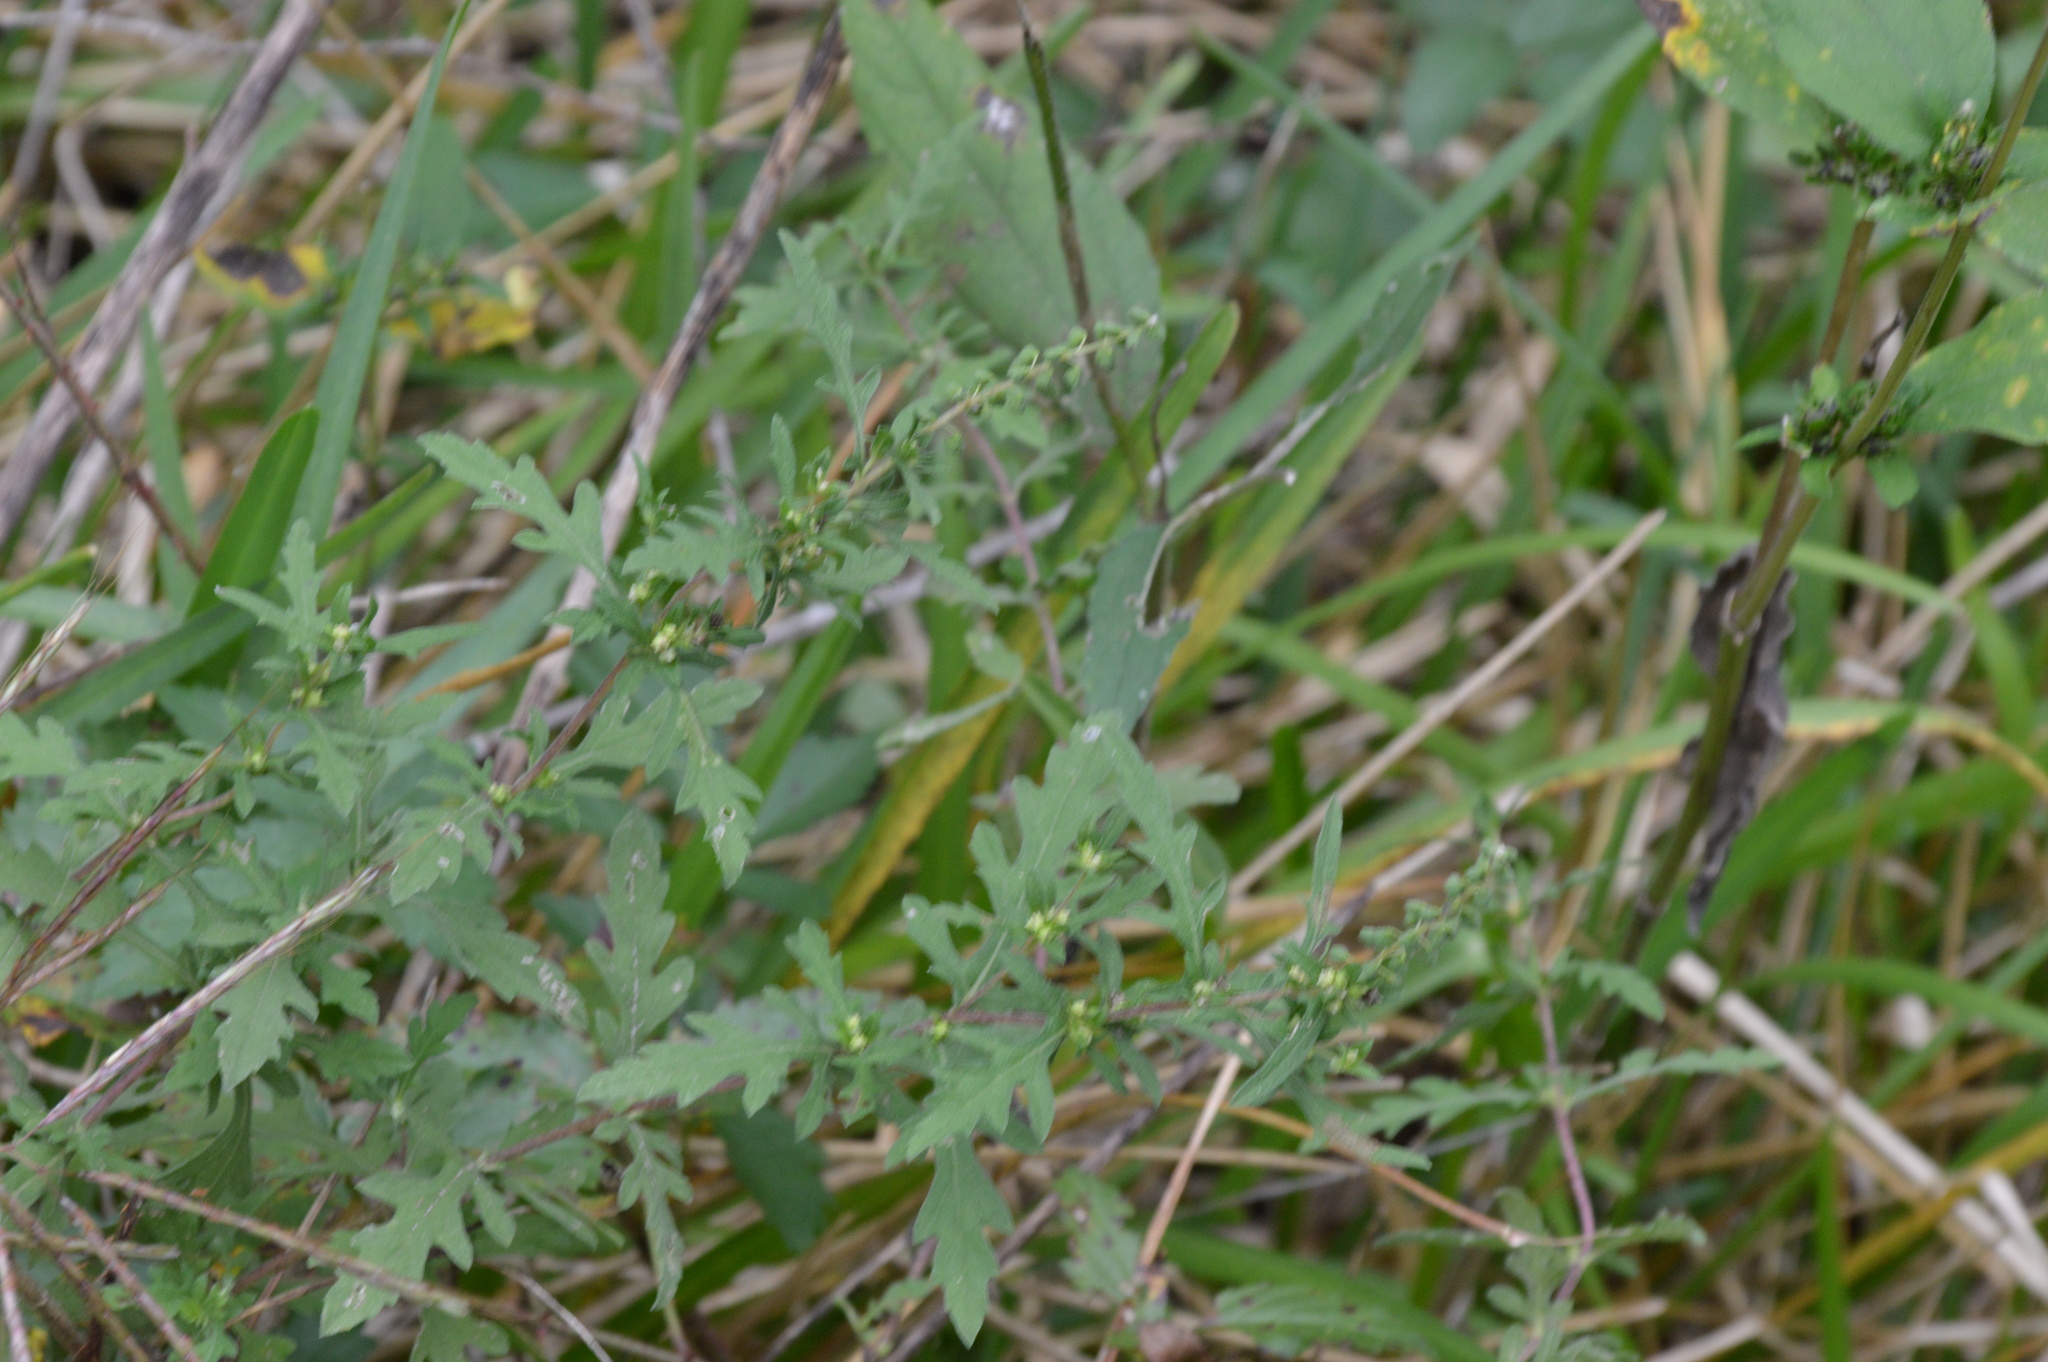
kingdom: Plantae
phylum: Tracheophyta
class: Magnoliopsida
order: Asterales
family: Asteraceae
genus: Ambrosia
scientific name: Ambrosia psilostachya
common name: Perennial ragweed
